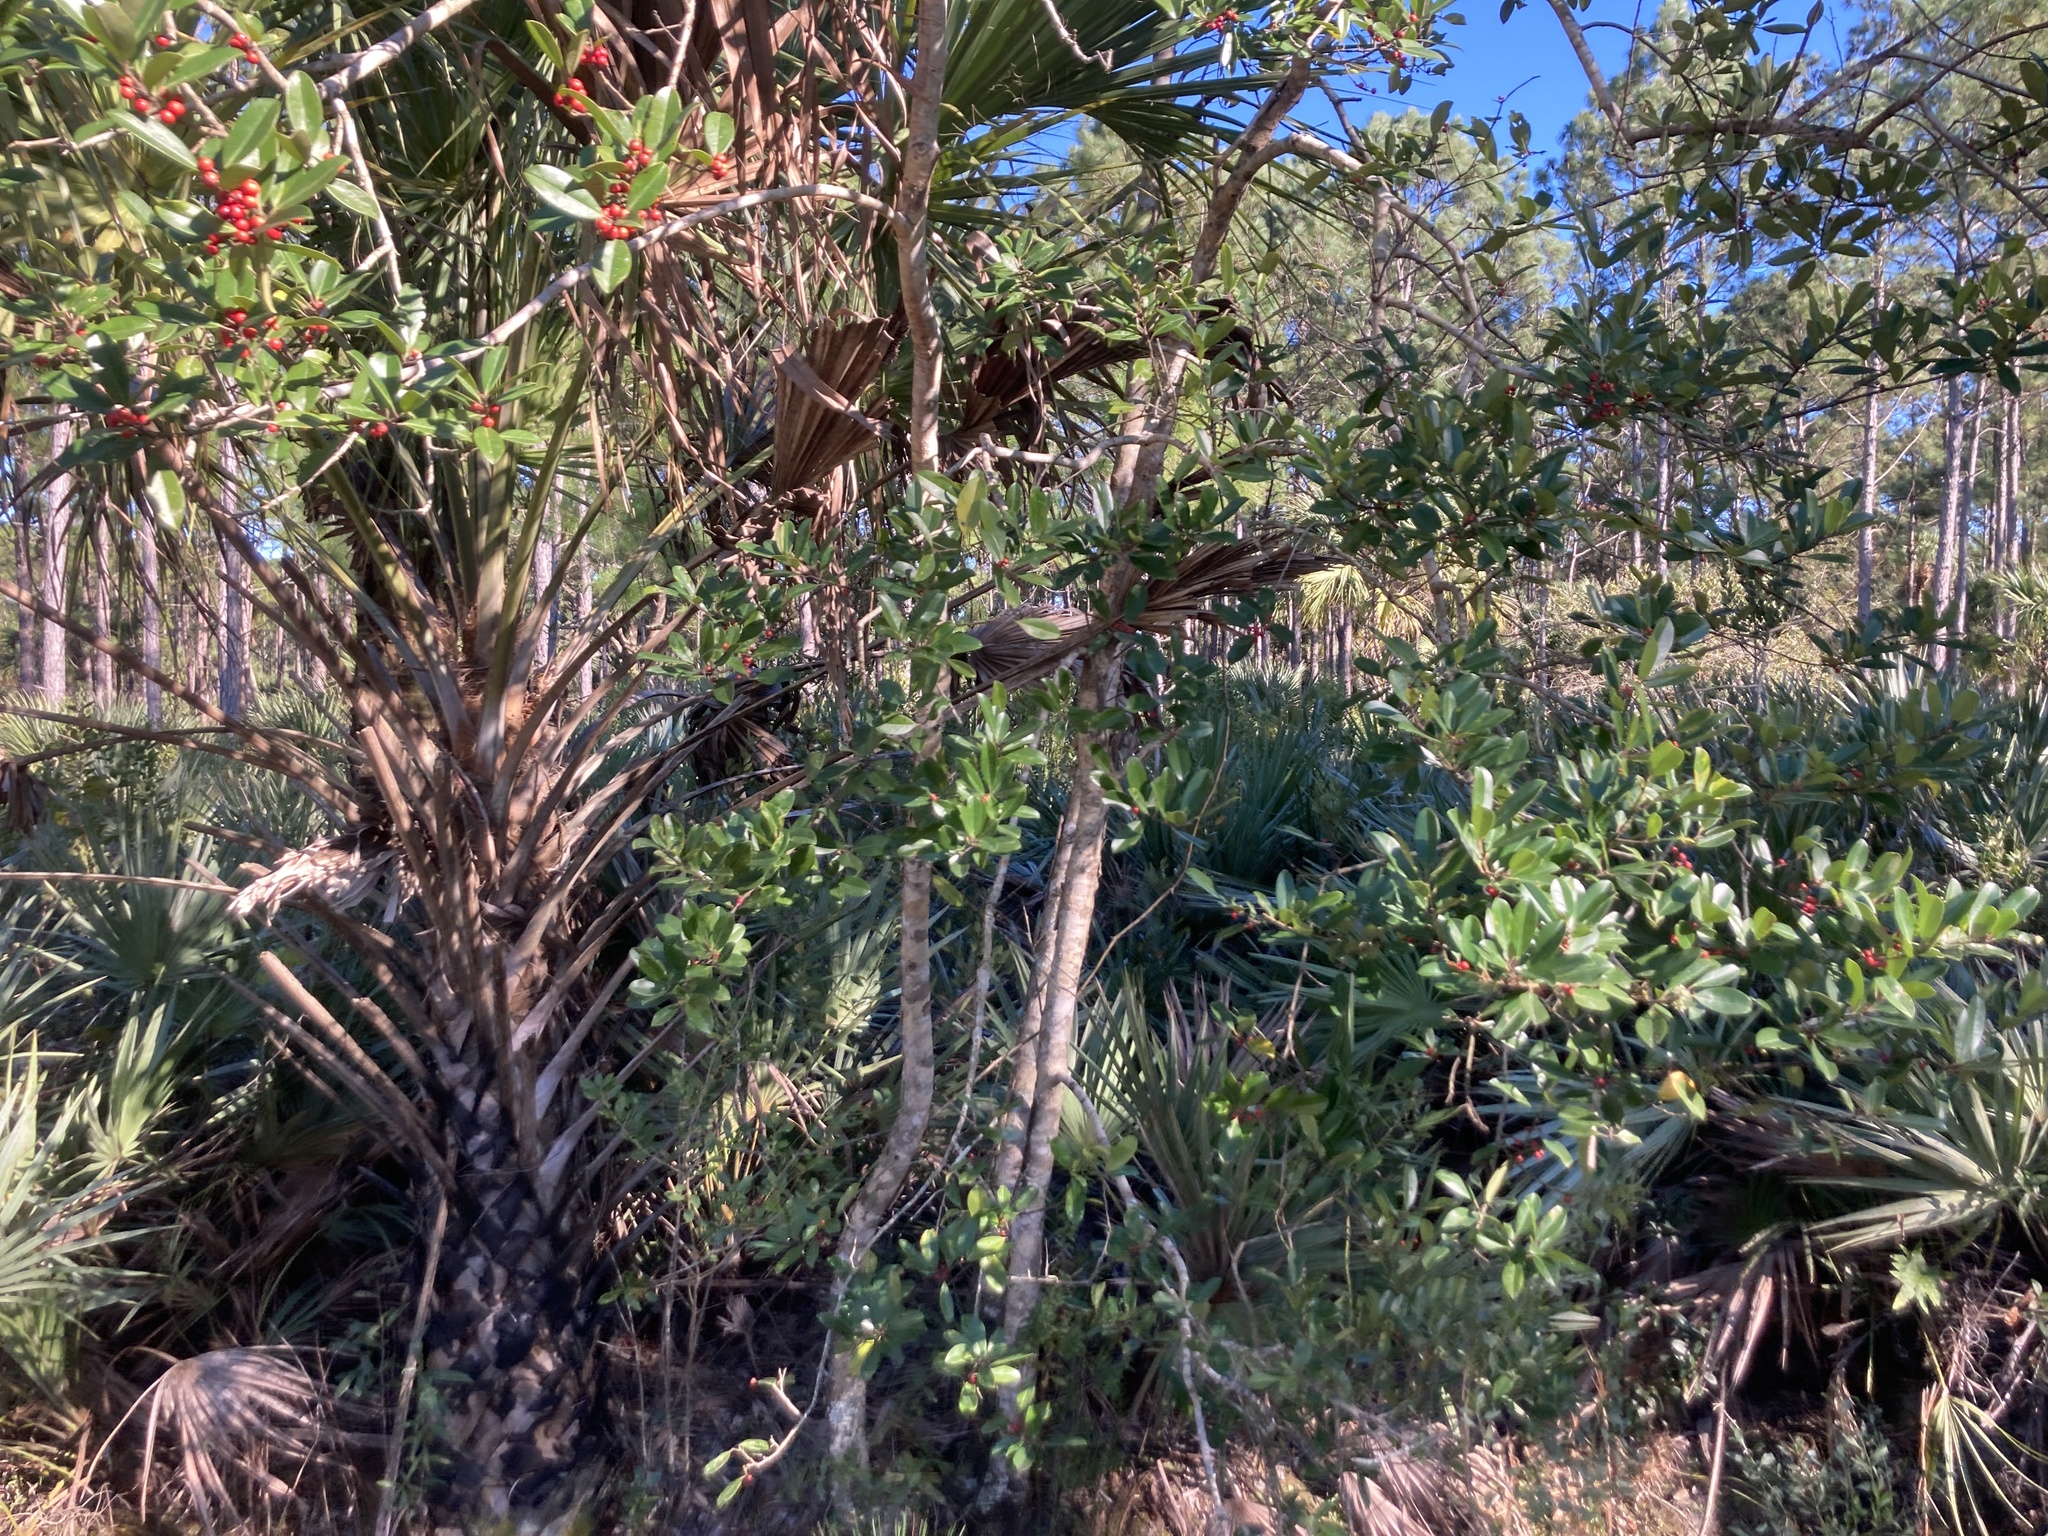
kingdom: Plantae
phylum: Tracheophyta
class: Magnoliopsida
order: Aquifoliales
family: Aquifoliaceae
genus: Ilex
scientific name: Ilex cassine
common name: Dahoon
